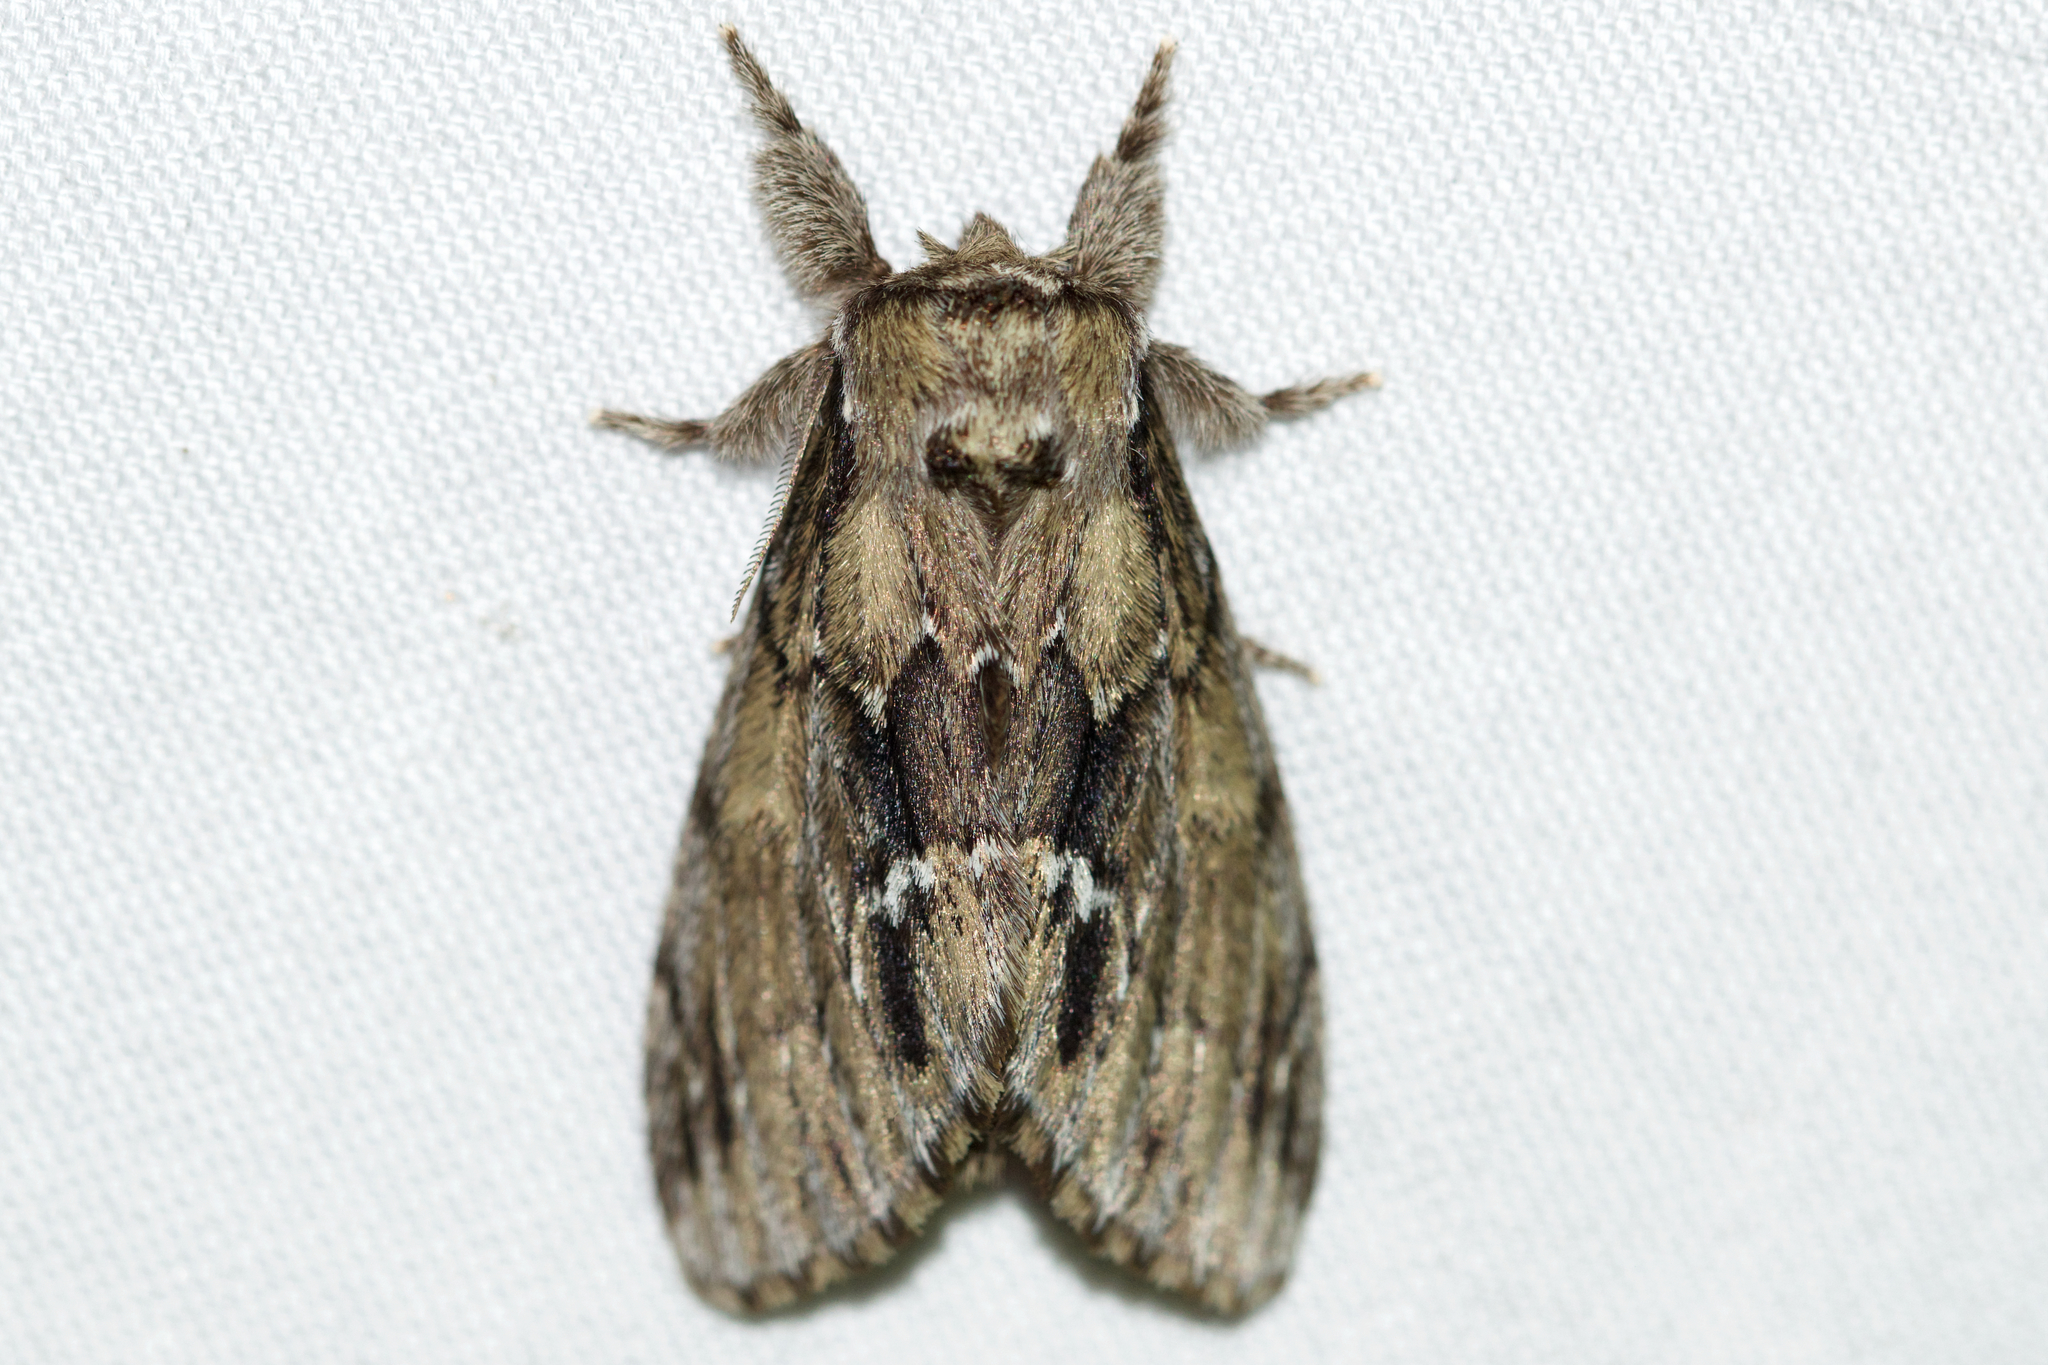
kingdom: Animalia
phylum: Arthropoda
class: Insecta
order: Lepidoptera
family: Notodontidae
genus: Paraeschra
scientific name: Paraeschra georgica
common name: Georgian prominent
